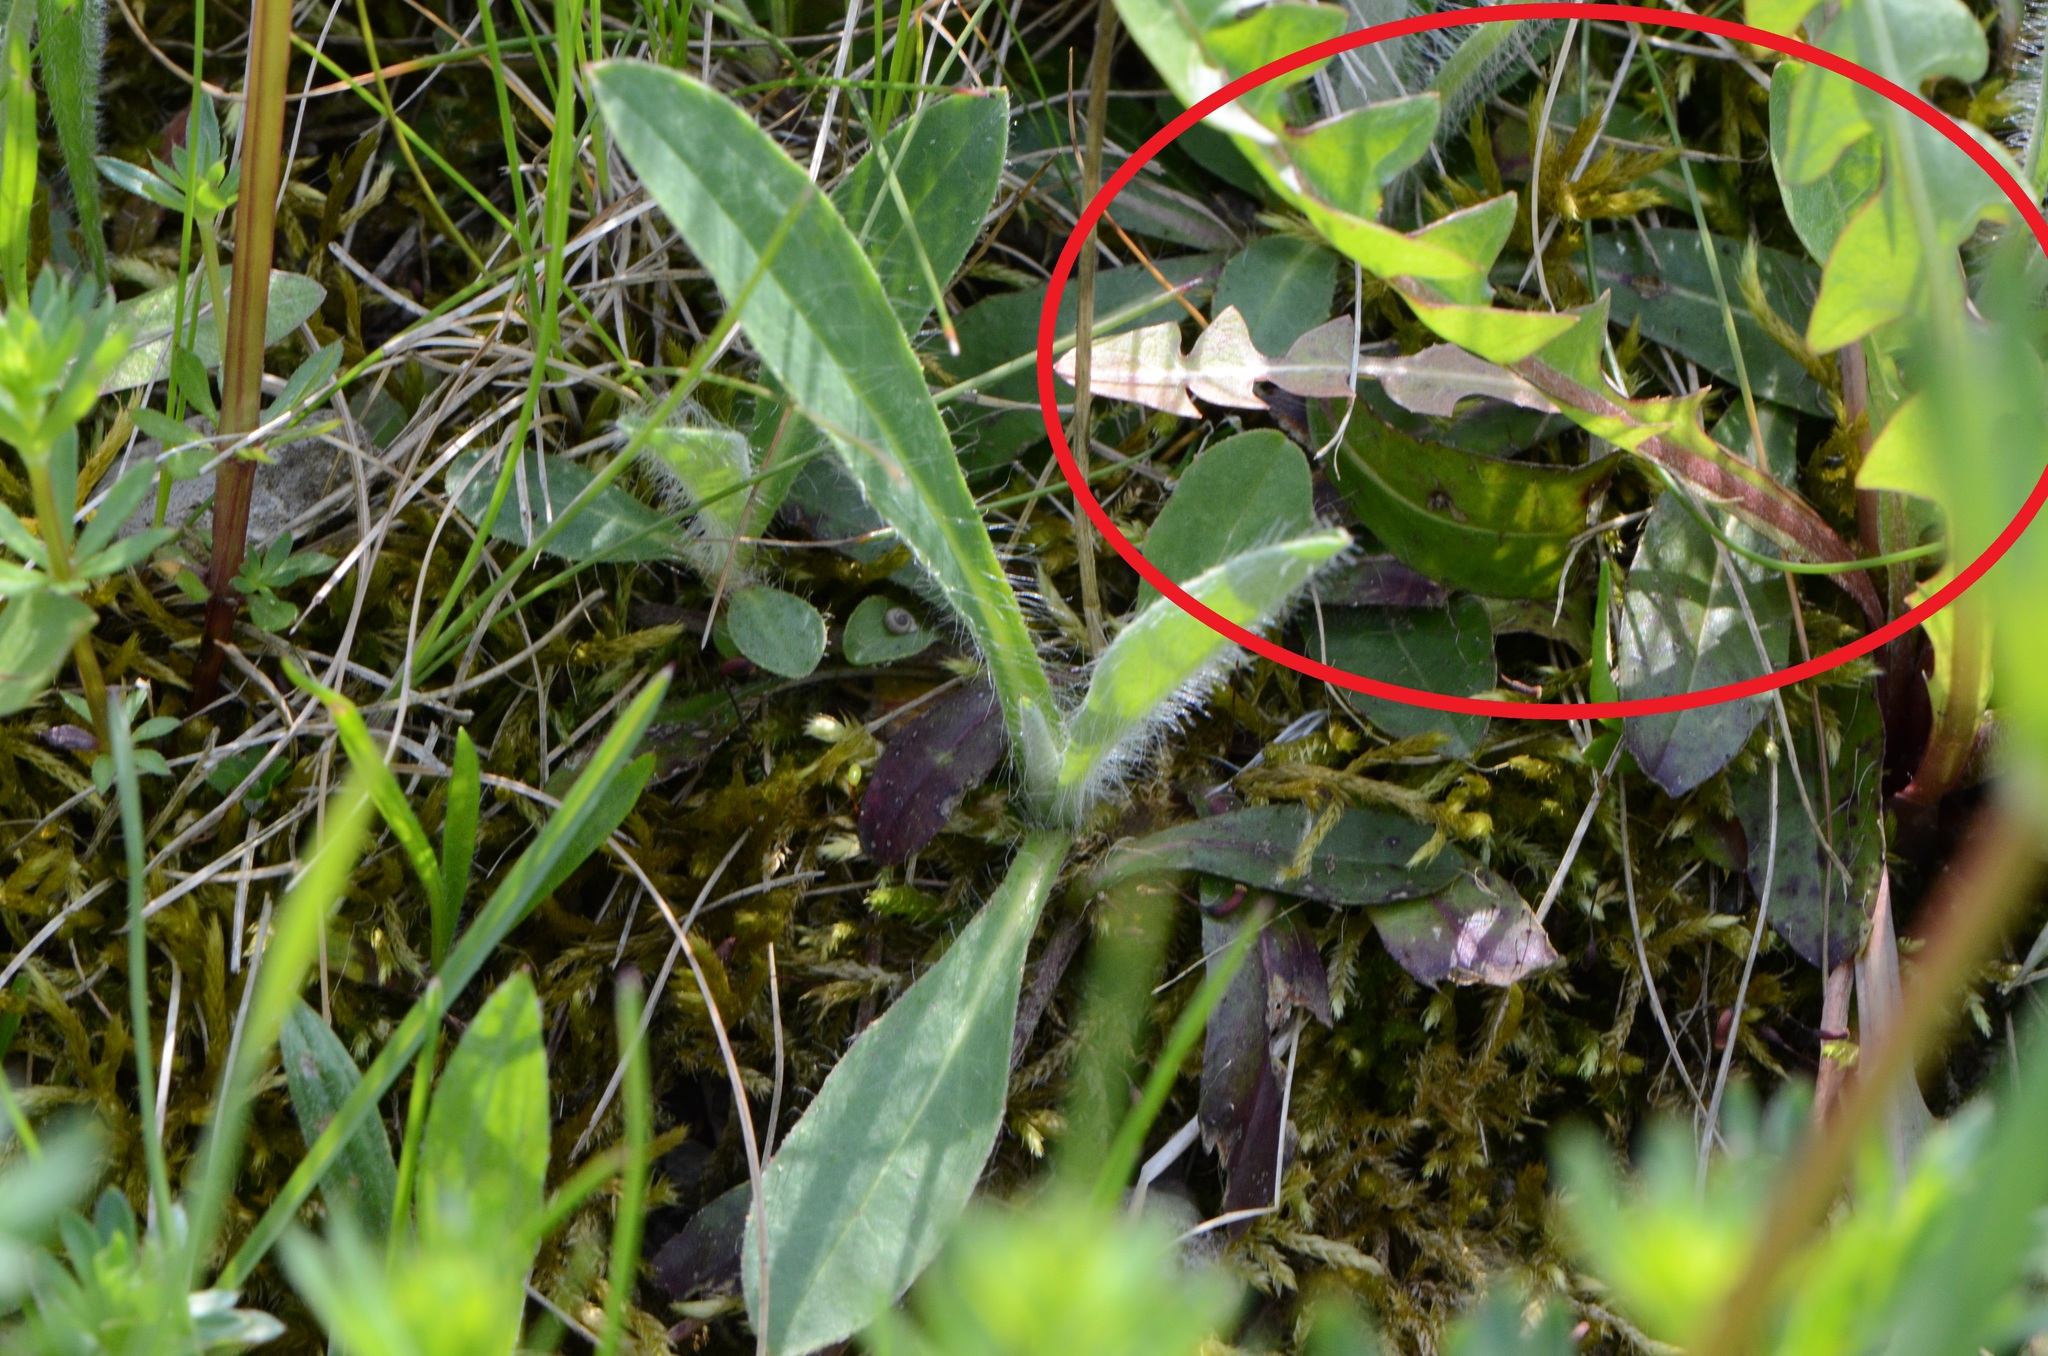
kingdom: Plantae
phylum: Tracheophyta
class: Magnoliopsida
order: Asterales
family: Asteraceae
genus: Taraxacum
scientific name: Taraxacum officinale
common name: Common dandelion
